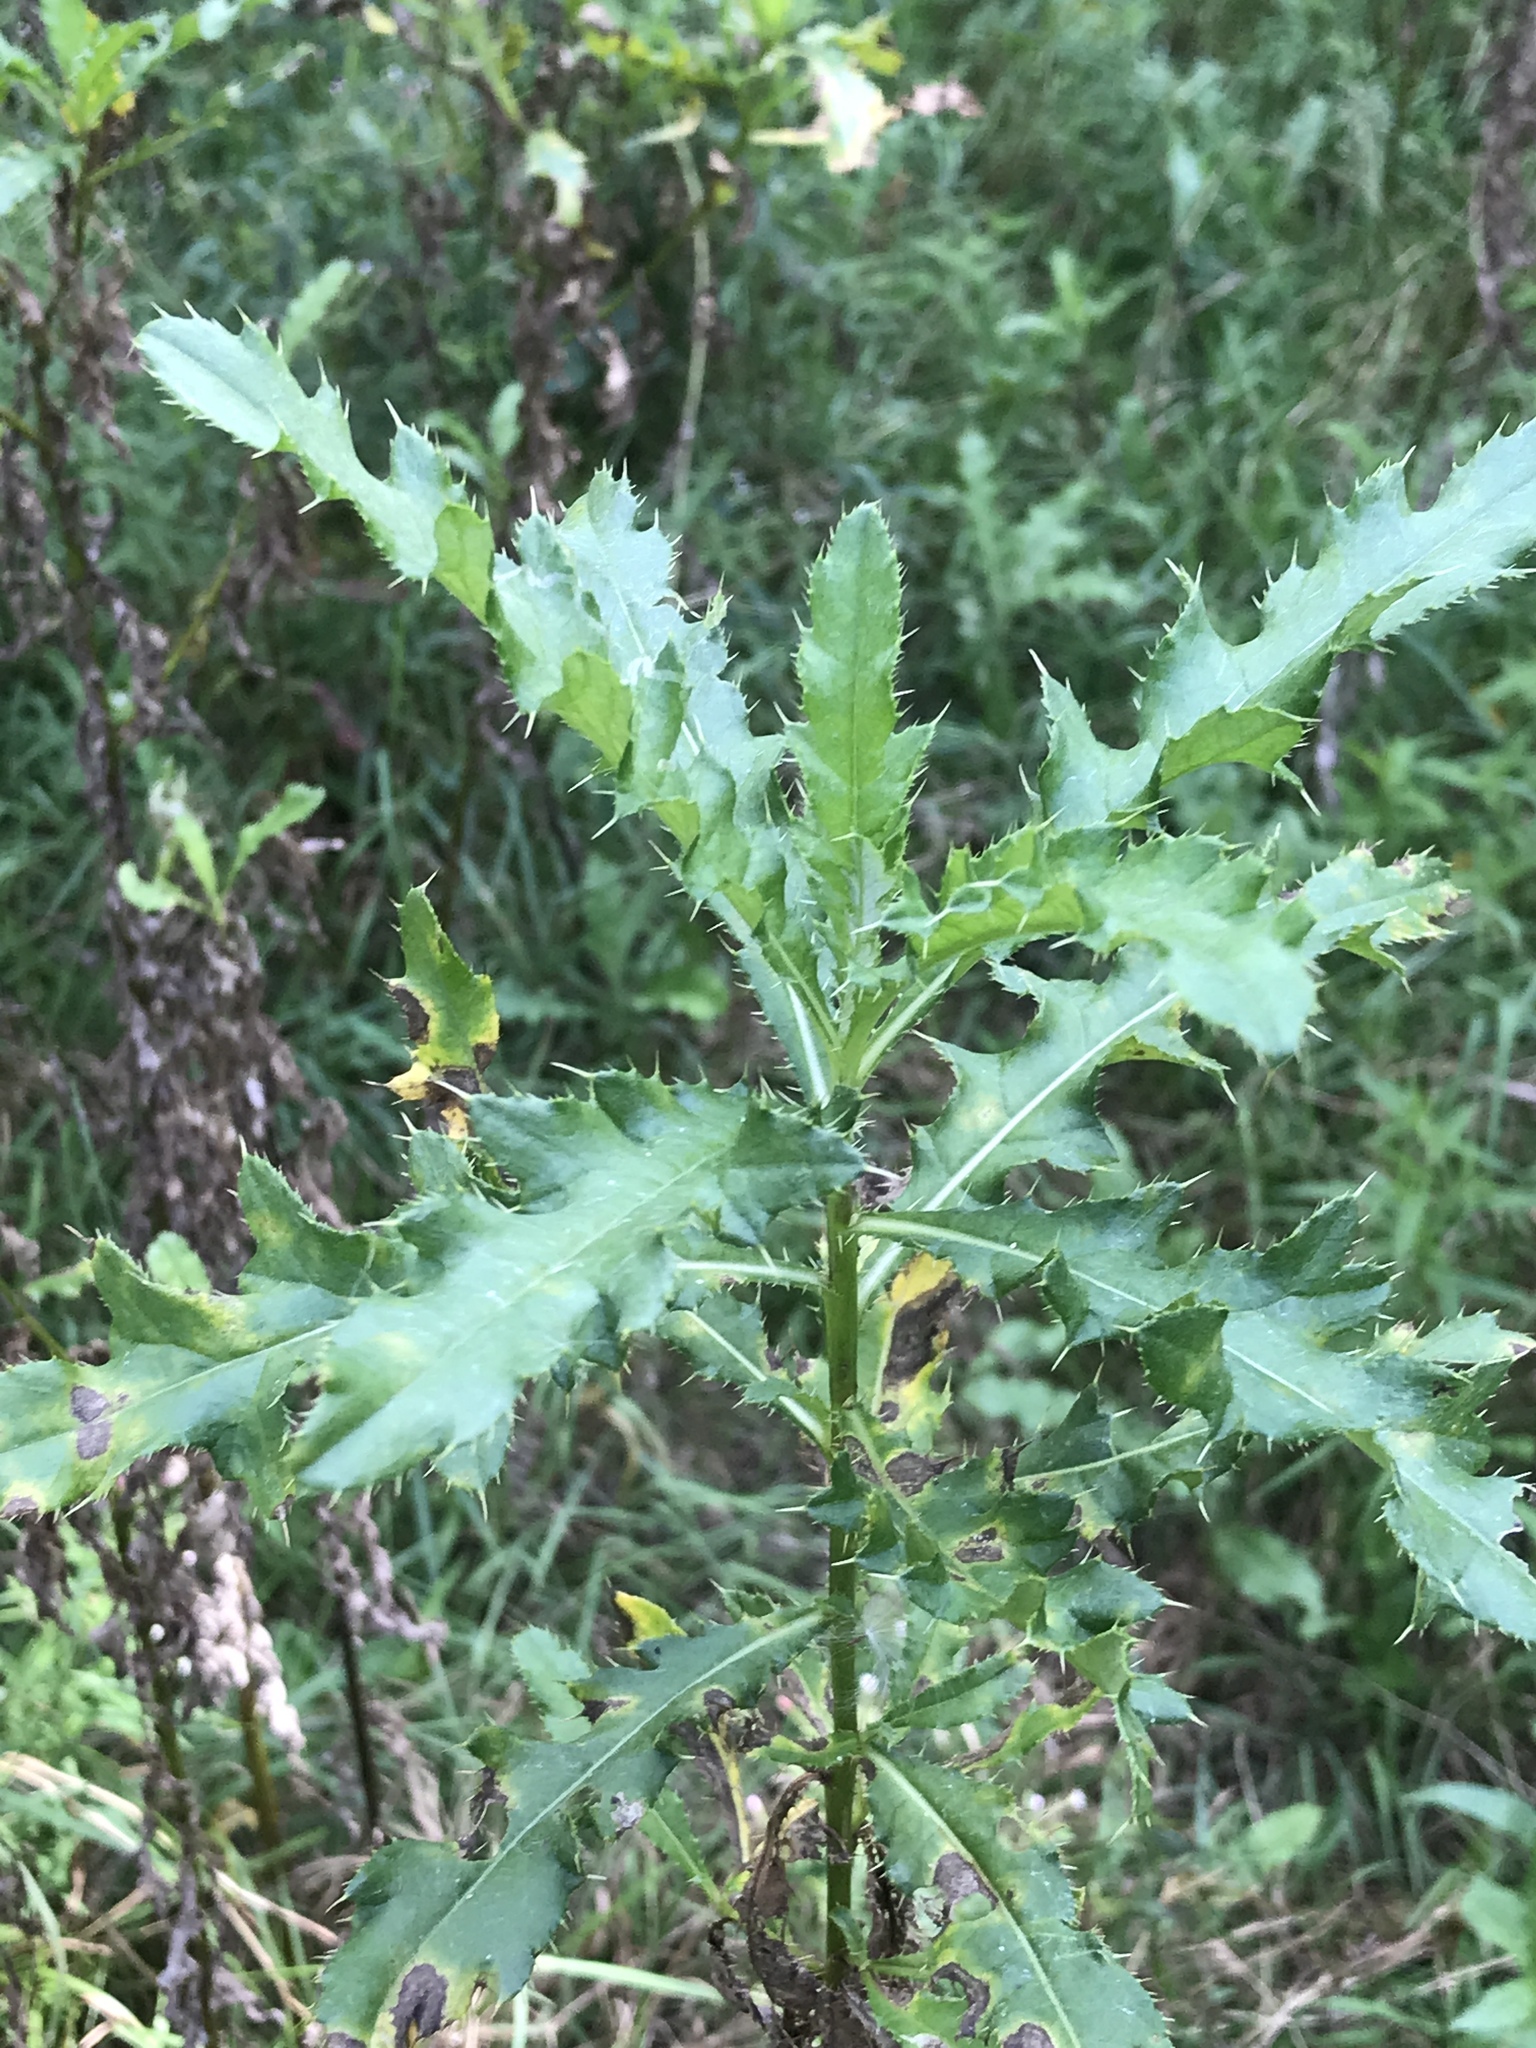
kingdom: Plantae
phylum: Tracheophyta
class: Magnoliopsida
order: Asterales
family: Asteraceae
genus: Cirsium
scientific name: Cirsium arvense
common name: Creeping thistle
